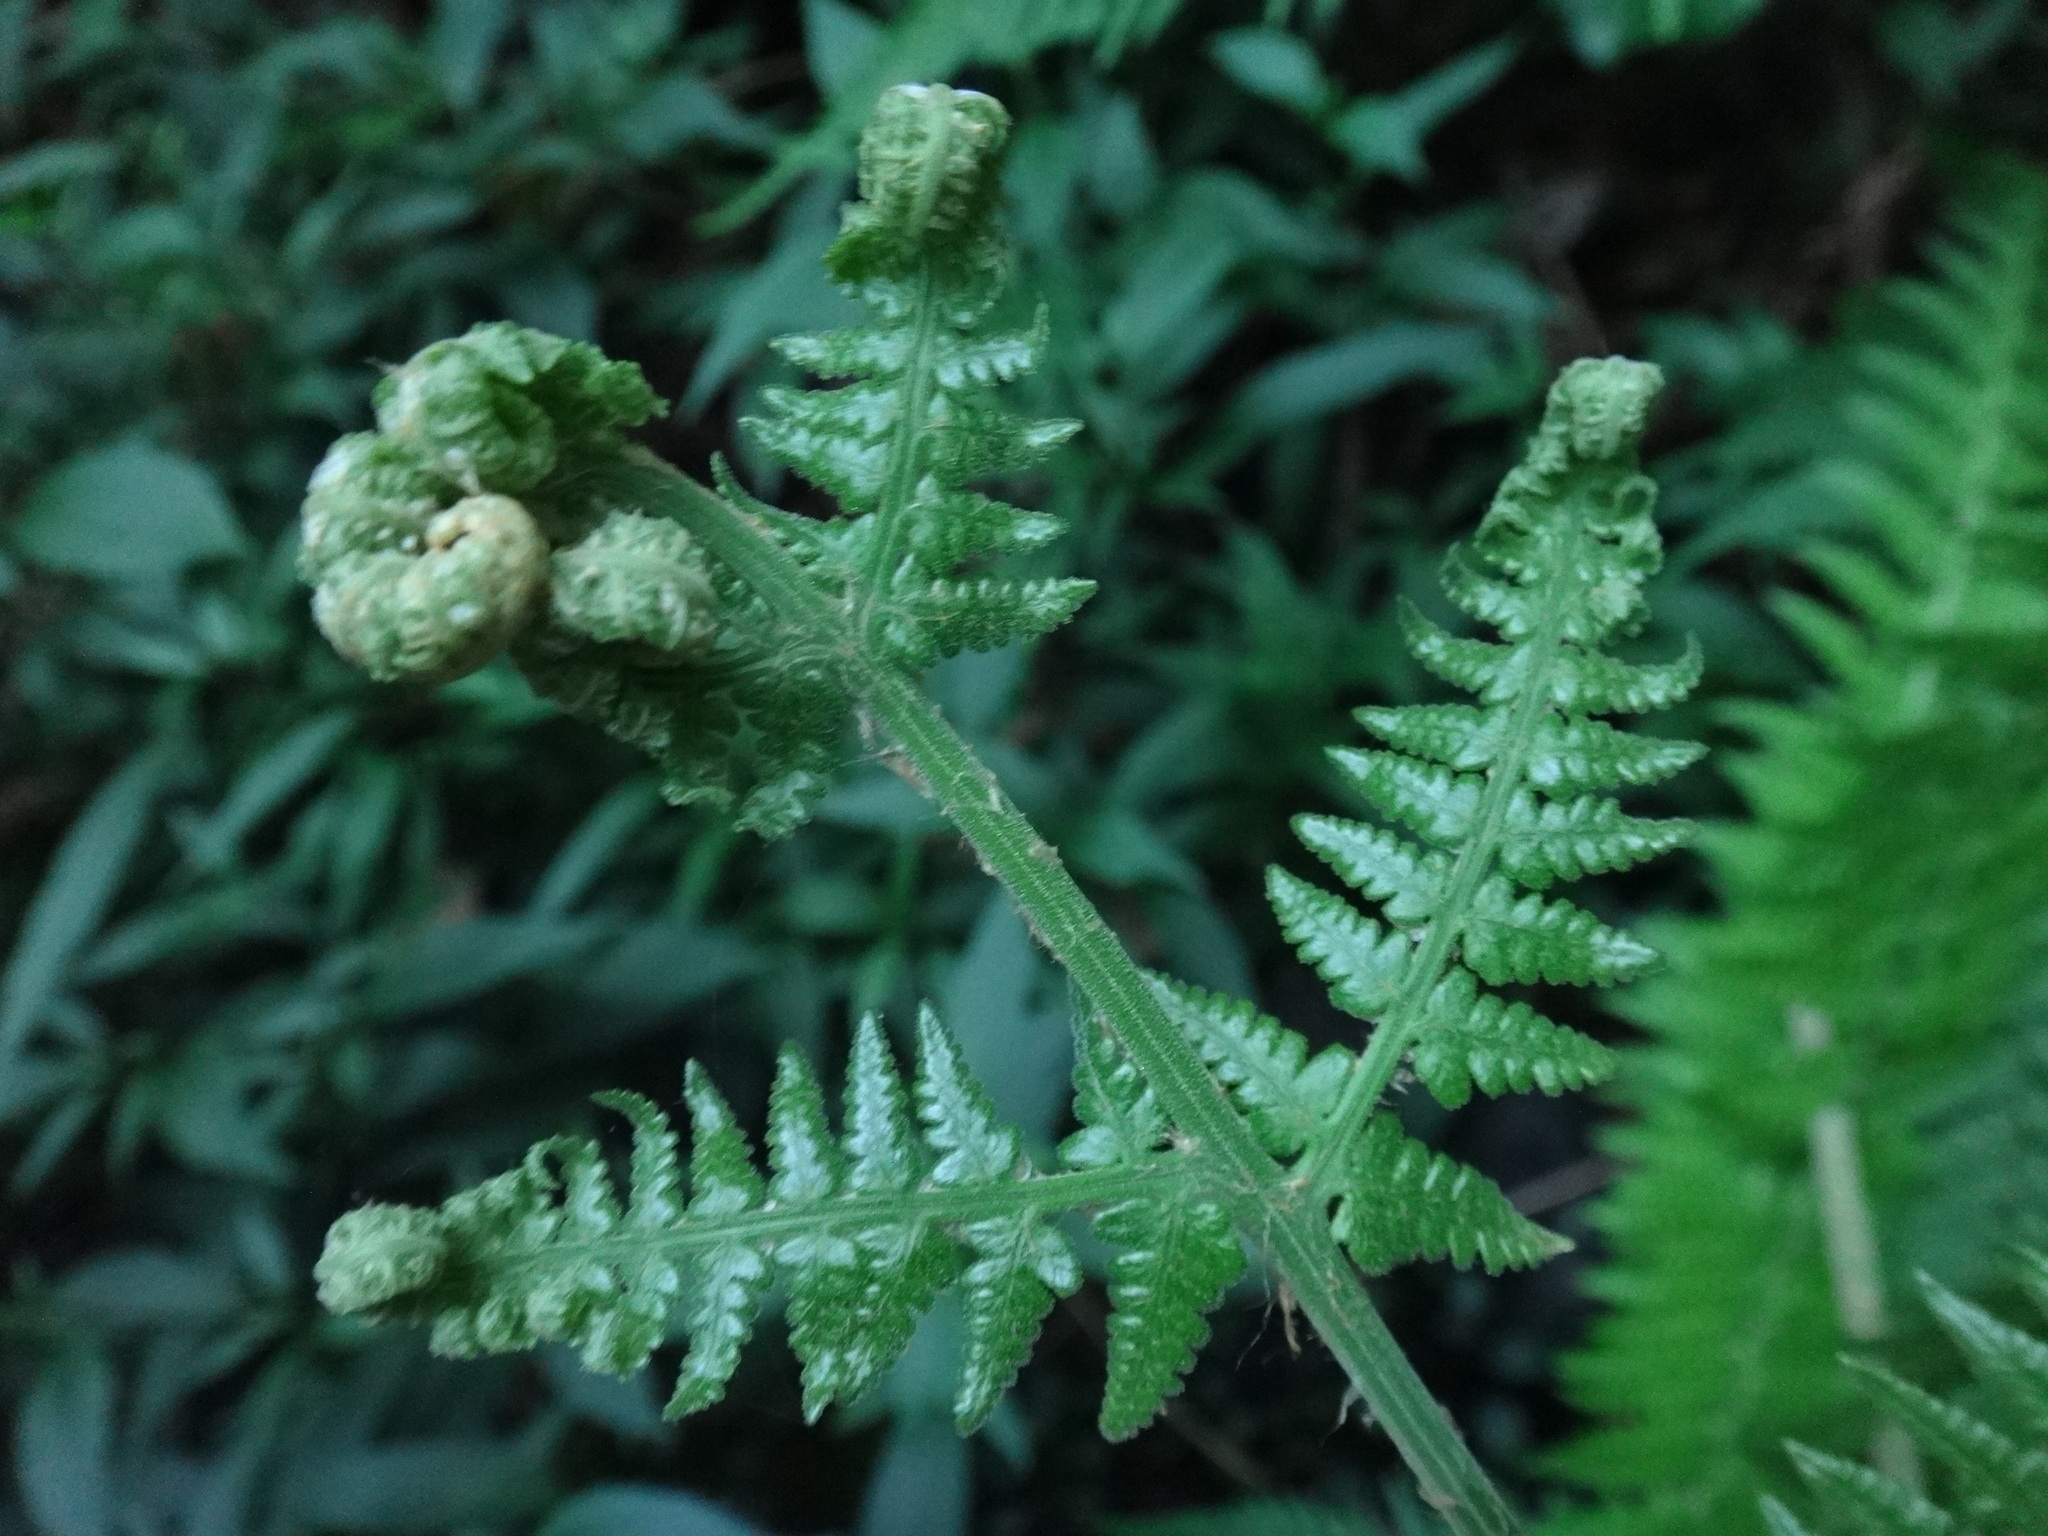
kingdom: Plantae
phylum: Tracheophyta
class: Polypodiopsida
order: Polypodiales
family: Dryopteridaceae
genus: Dryopteris
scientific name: Dryopteris oligodonta
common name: Canarian male-fern
